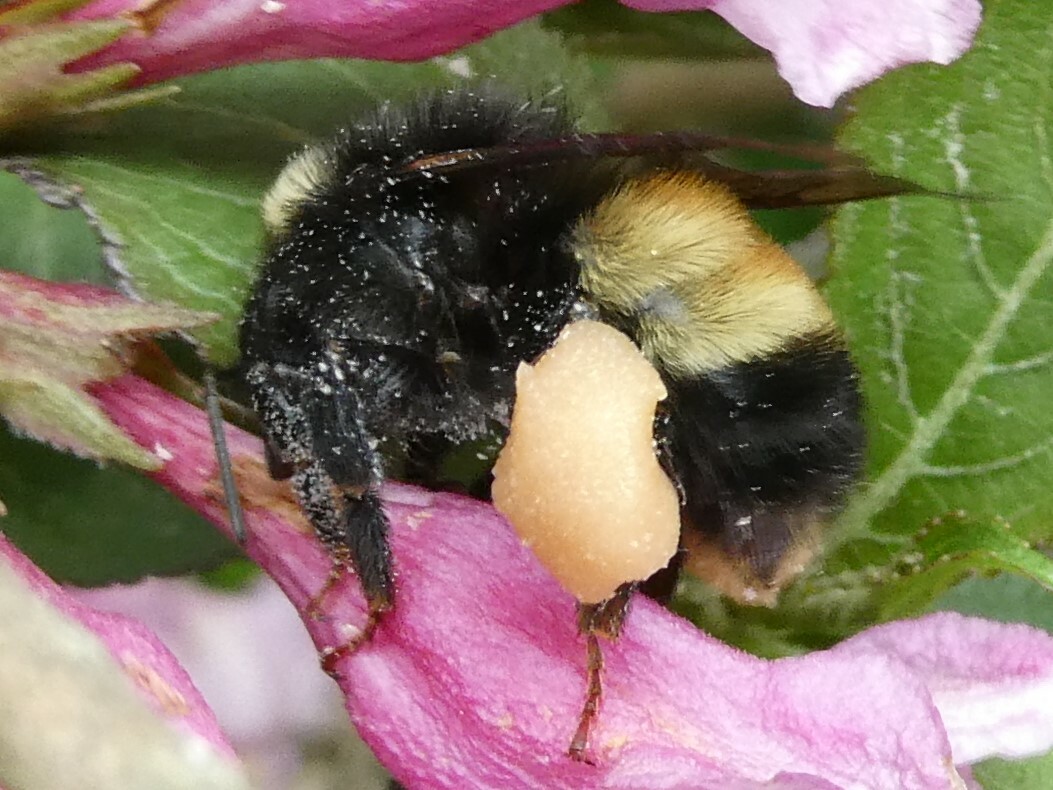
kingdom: Animalia
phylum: Arthropoda
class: Insecta
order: Hymenoptera
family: Apidae
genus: Bombus
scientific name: Bombus terricola
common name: Yellow-banded bumble bee
